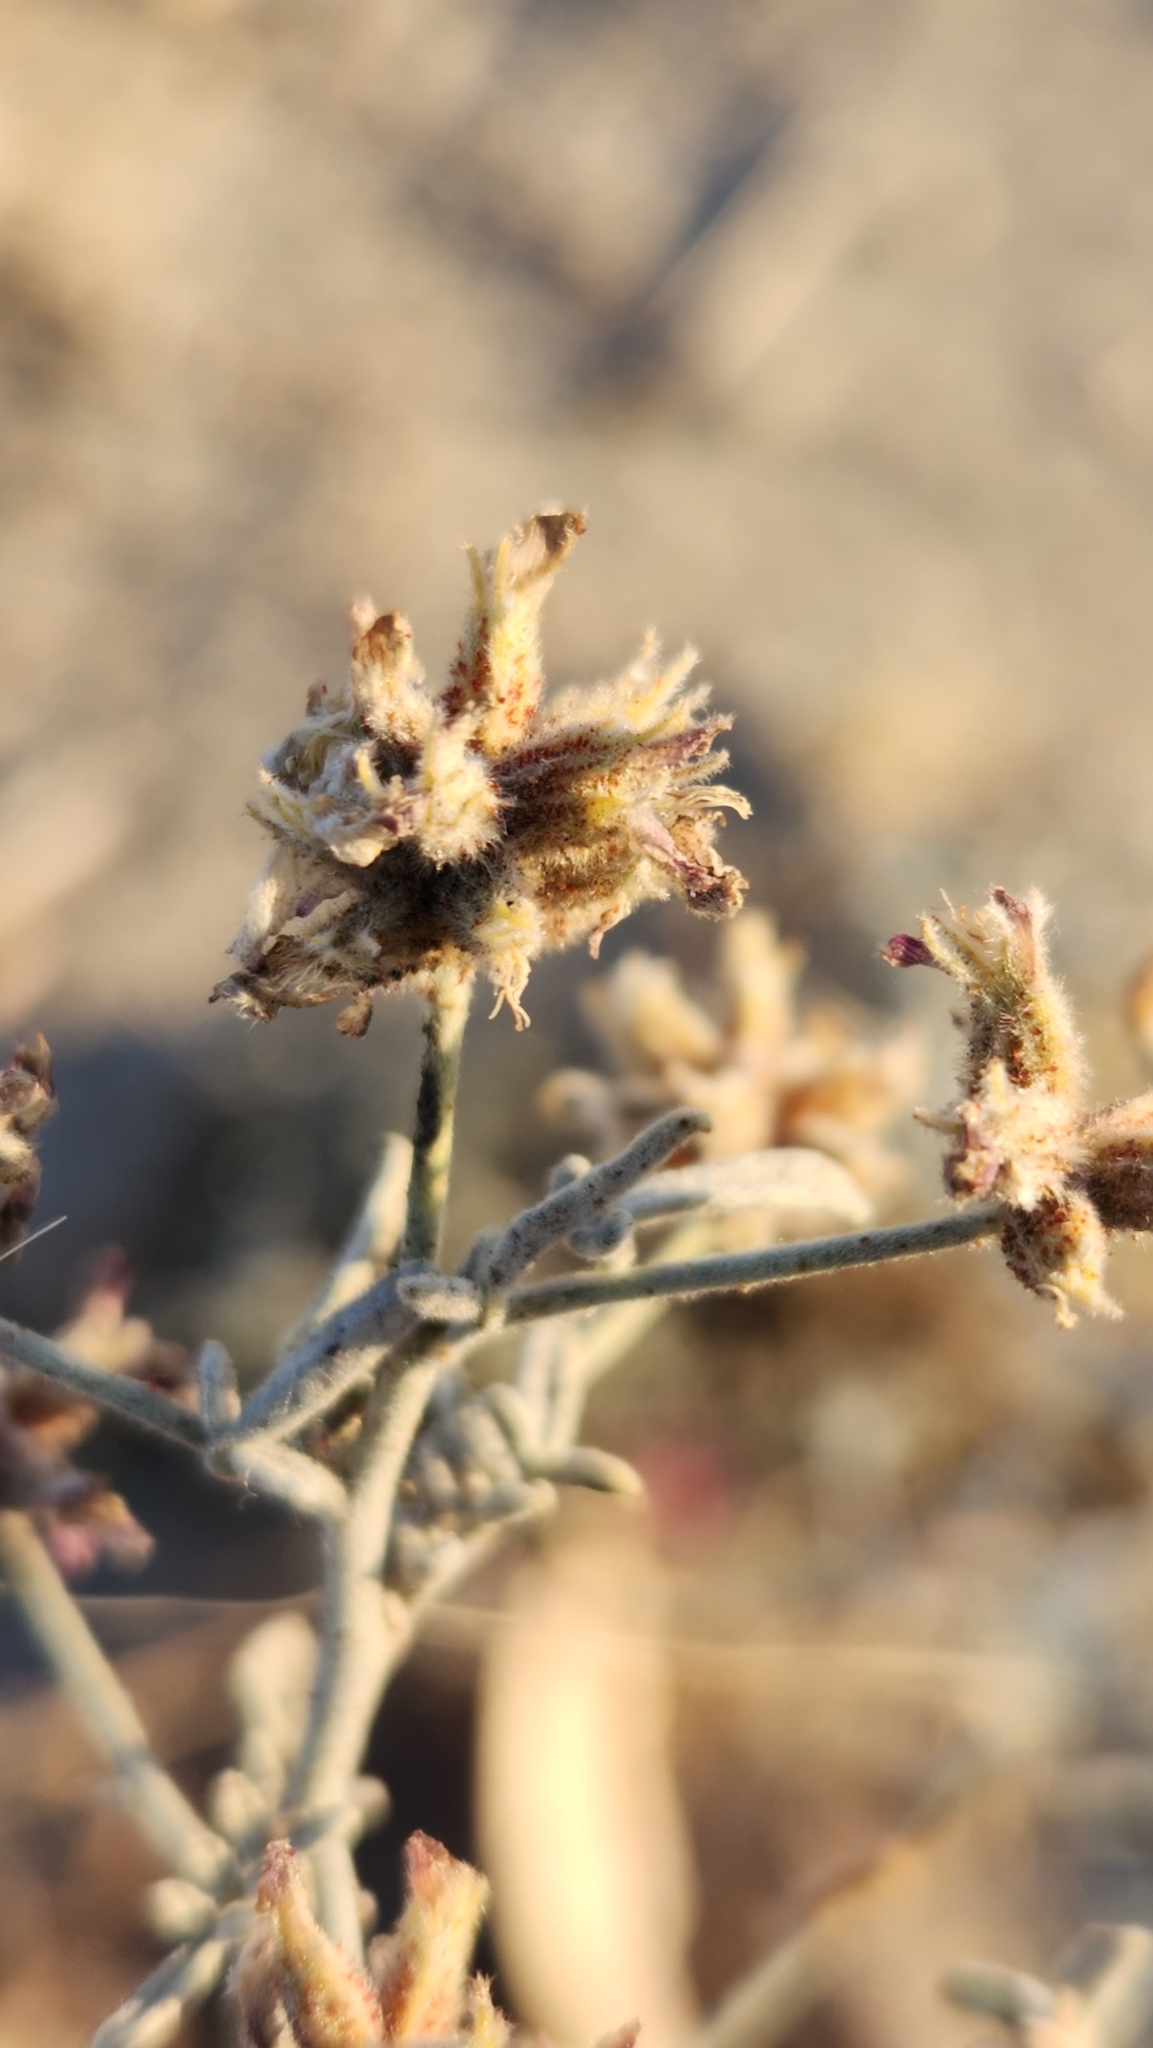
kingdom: Plantae
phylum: Tracheophyta
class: Magnoliopsida
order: Fabales
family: Fabaceae
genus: Psorothamnus
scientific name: Psorothamnus emoryi
